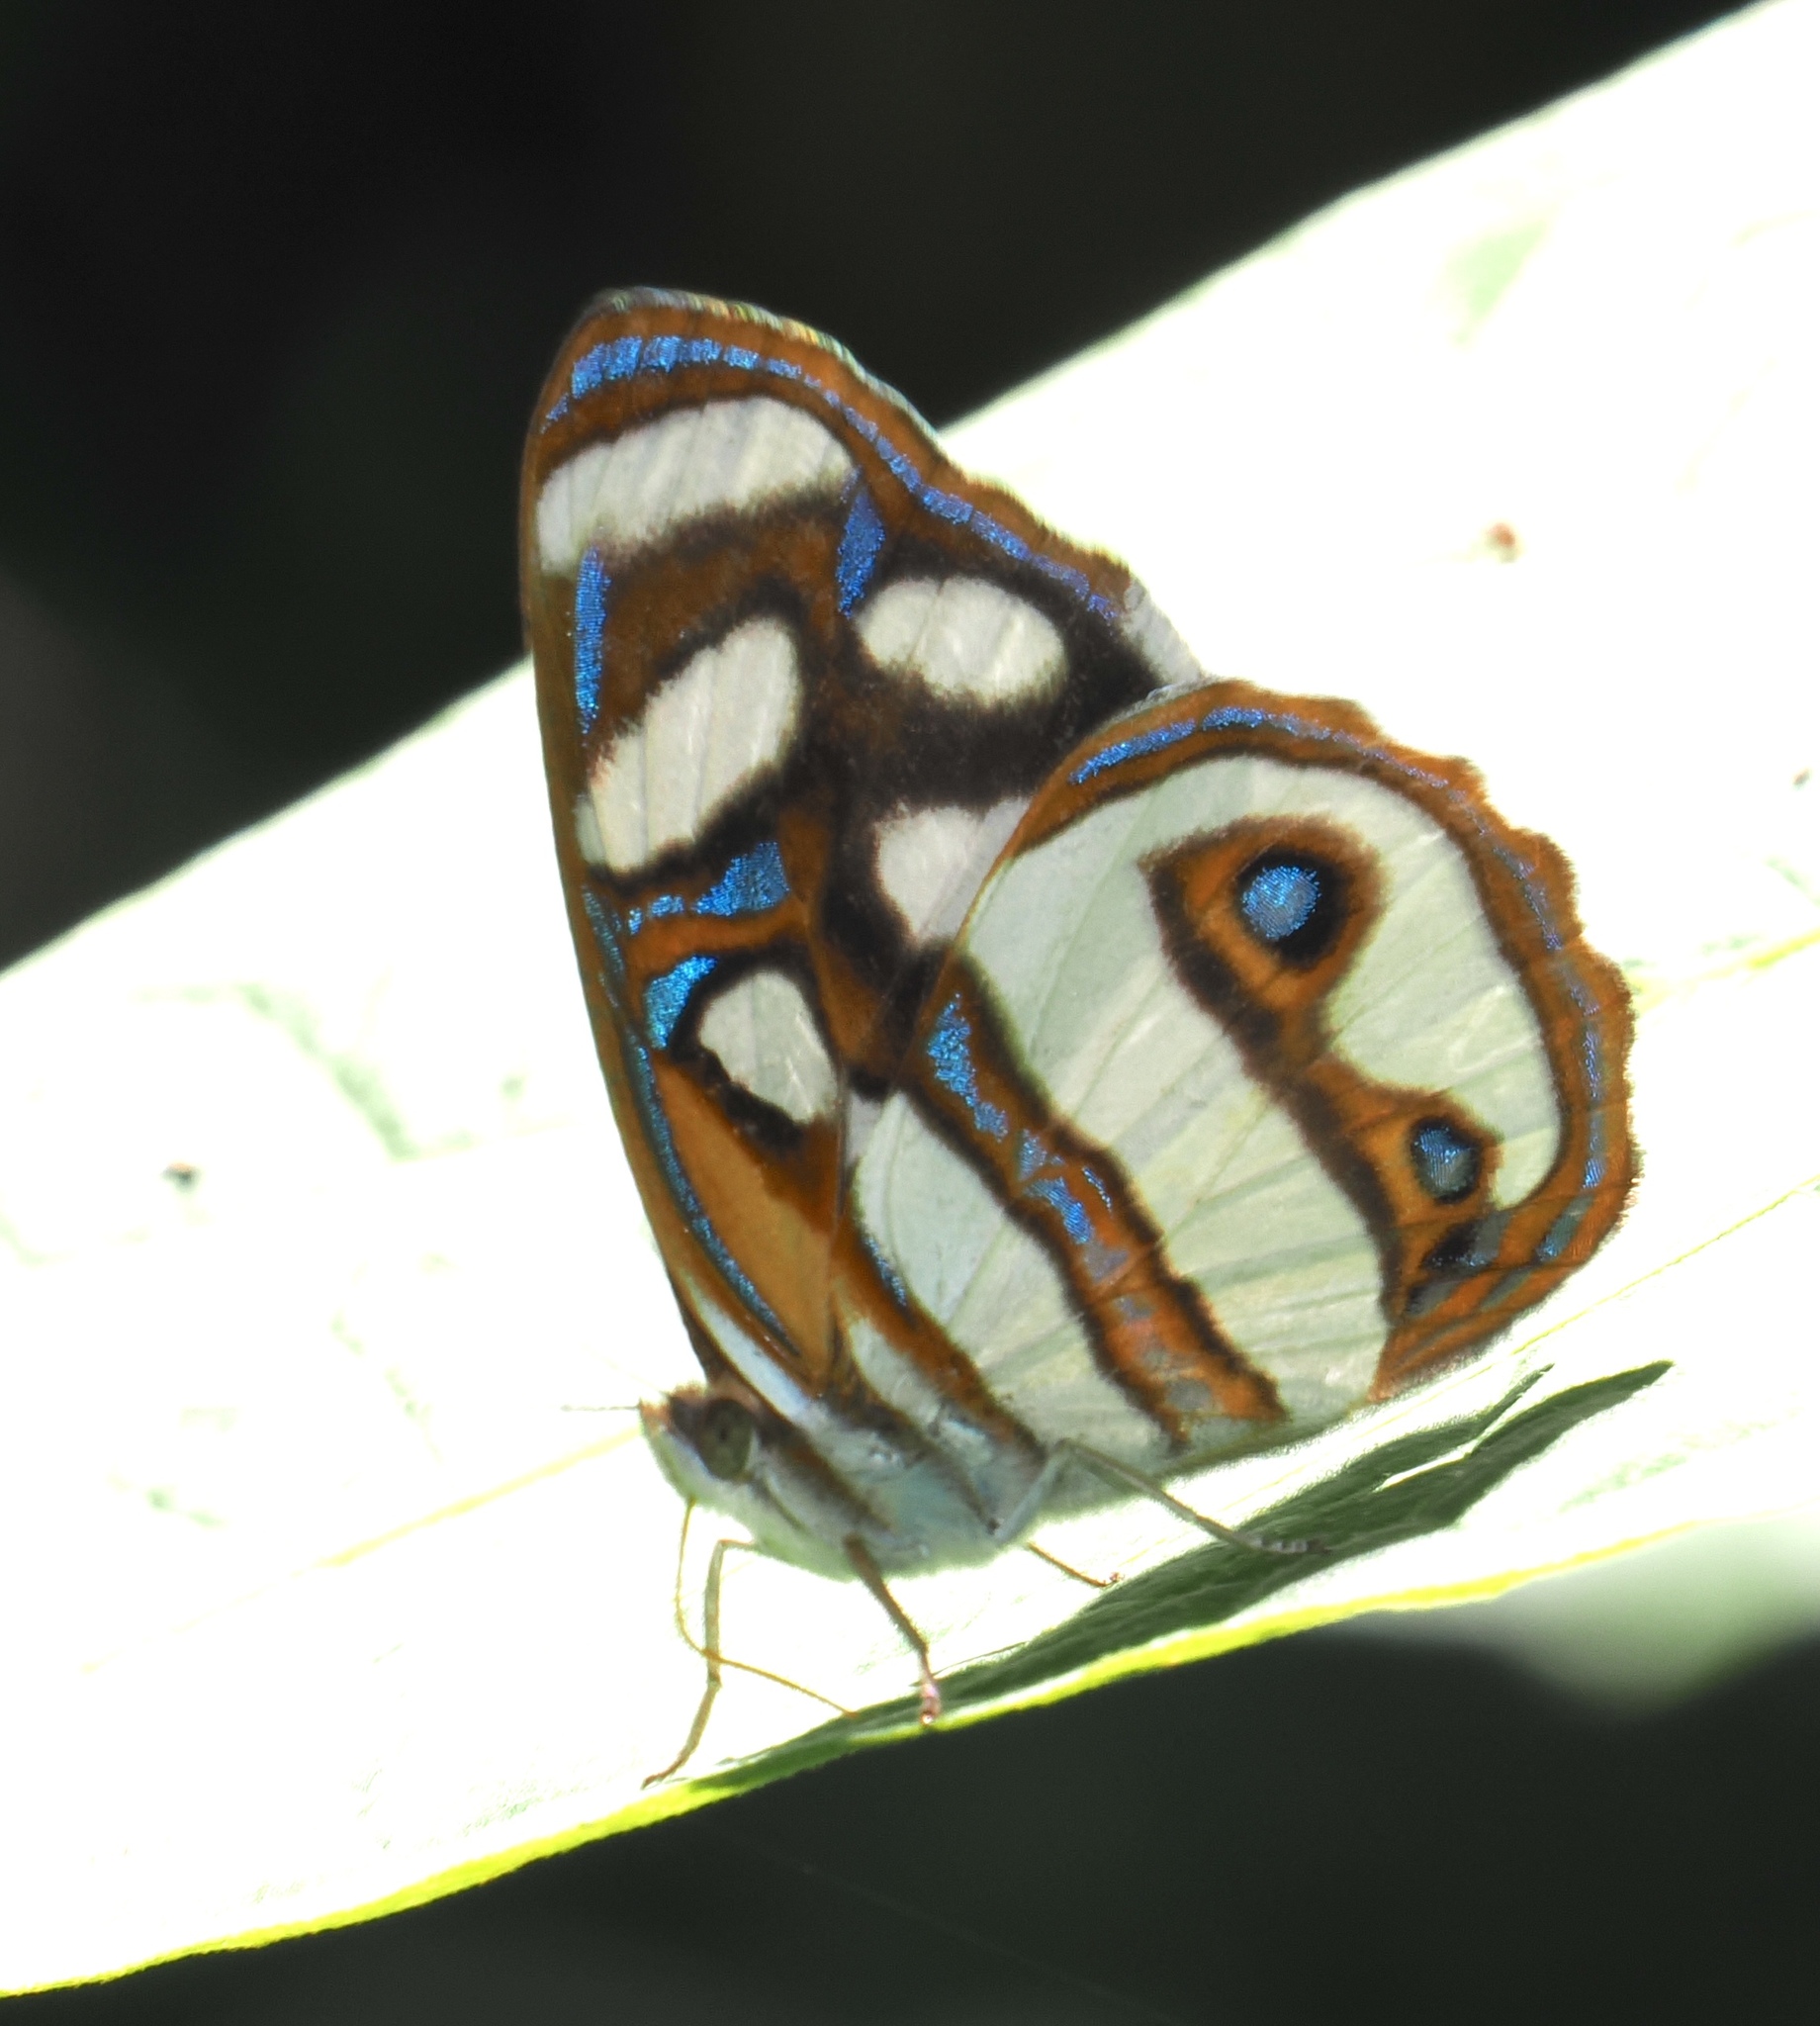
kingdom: Animalia
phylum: Arthropoda
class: Insecta
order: Lepidoptera
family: Nymphalidae
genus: Dynamine
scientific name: Dynamine artemisia
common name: Small-eyed sailor
